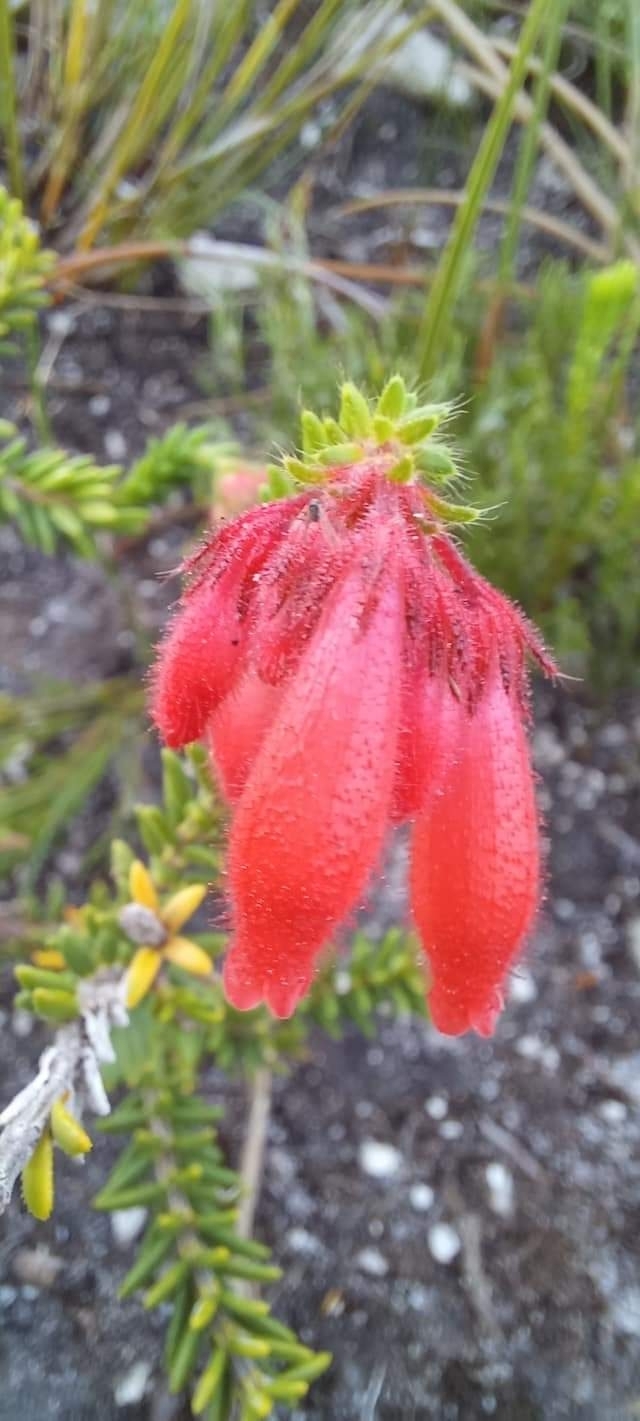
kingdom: Plantae
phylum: Tracheophyta
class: Magnoliopsida
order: Ericales
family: Ericaceae
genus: Erica
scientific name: Erica cerinthoides
